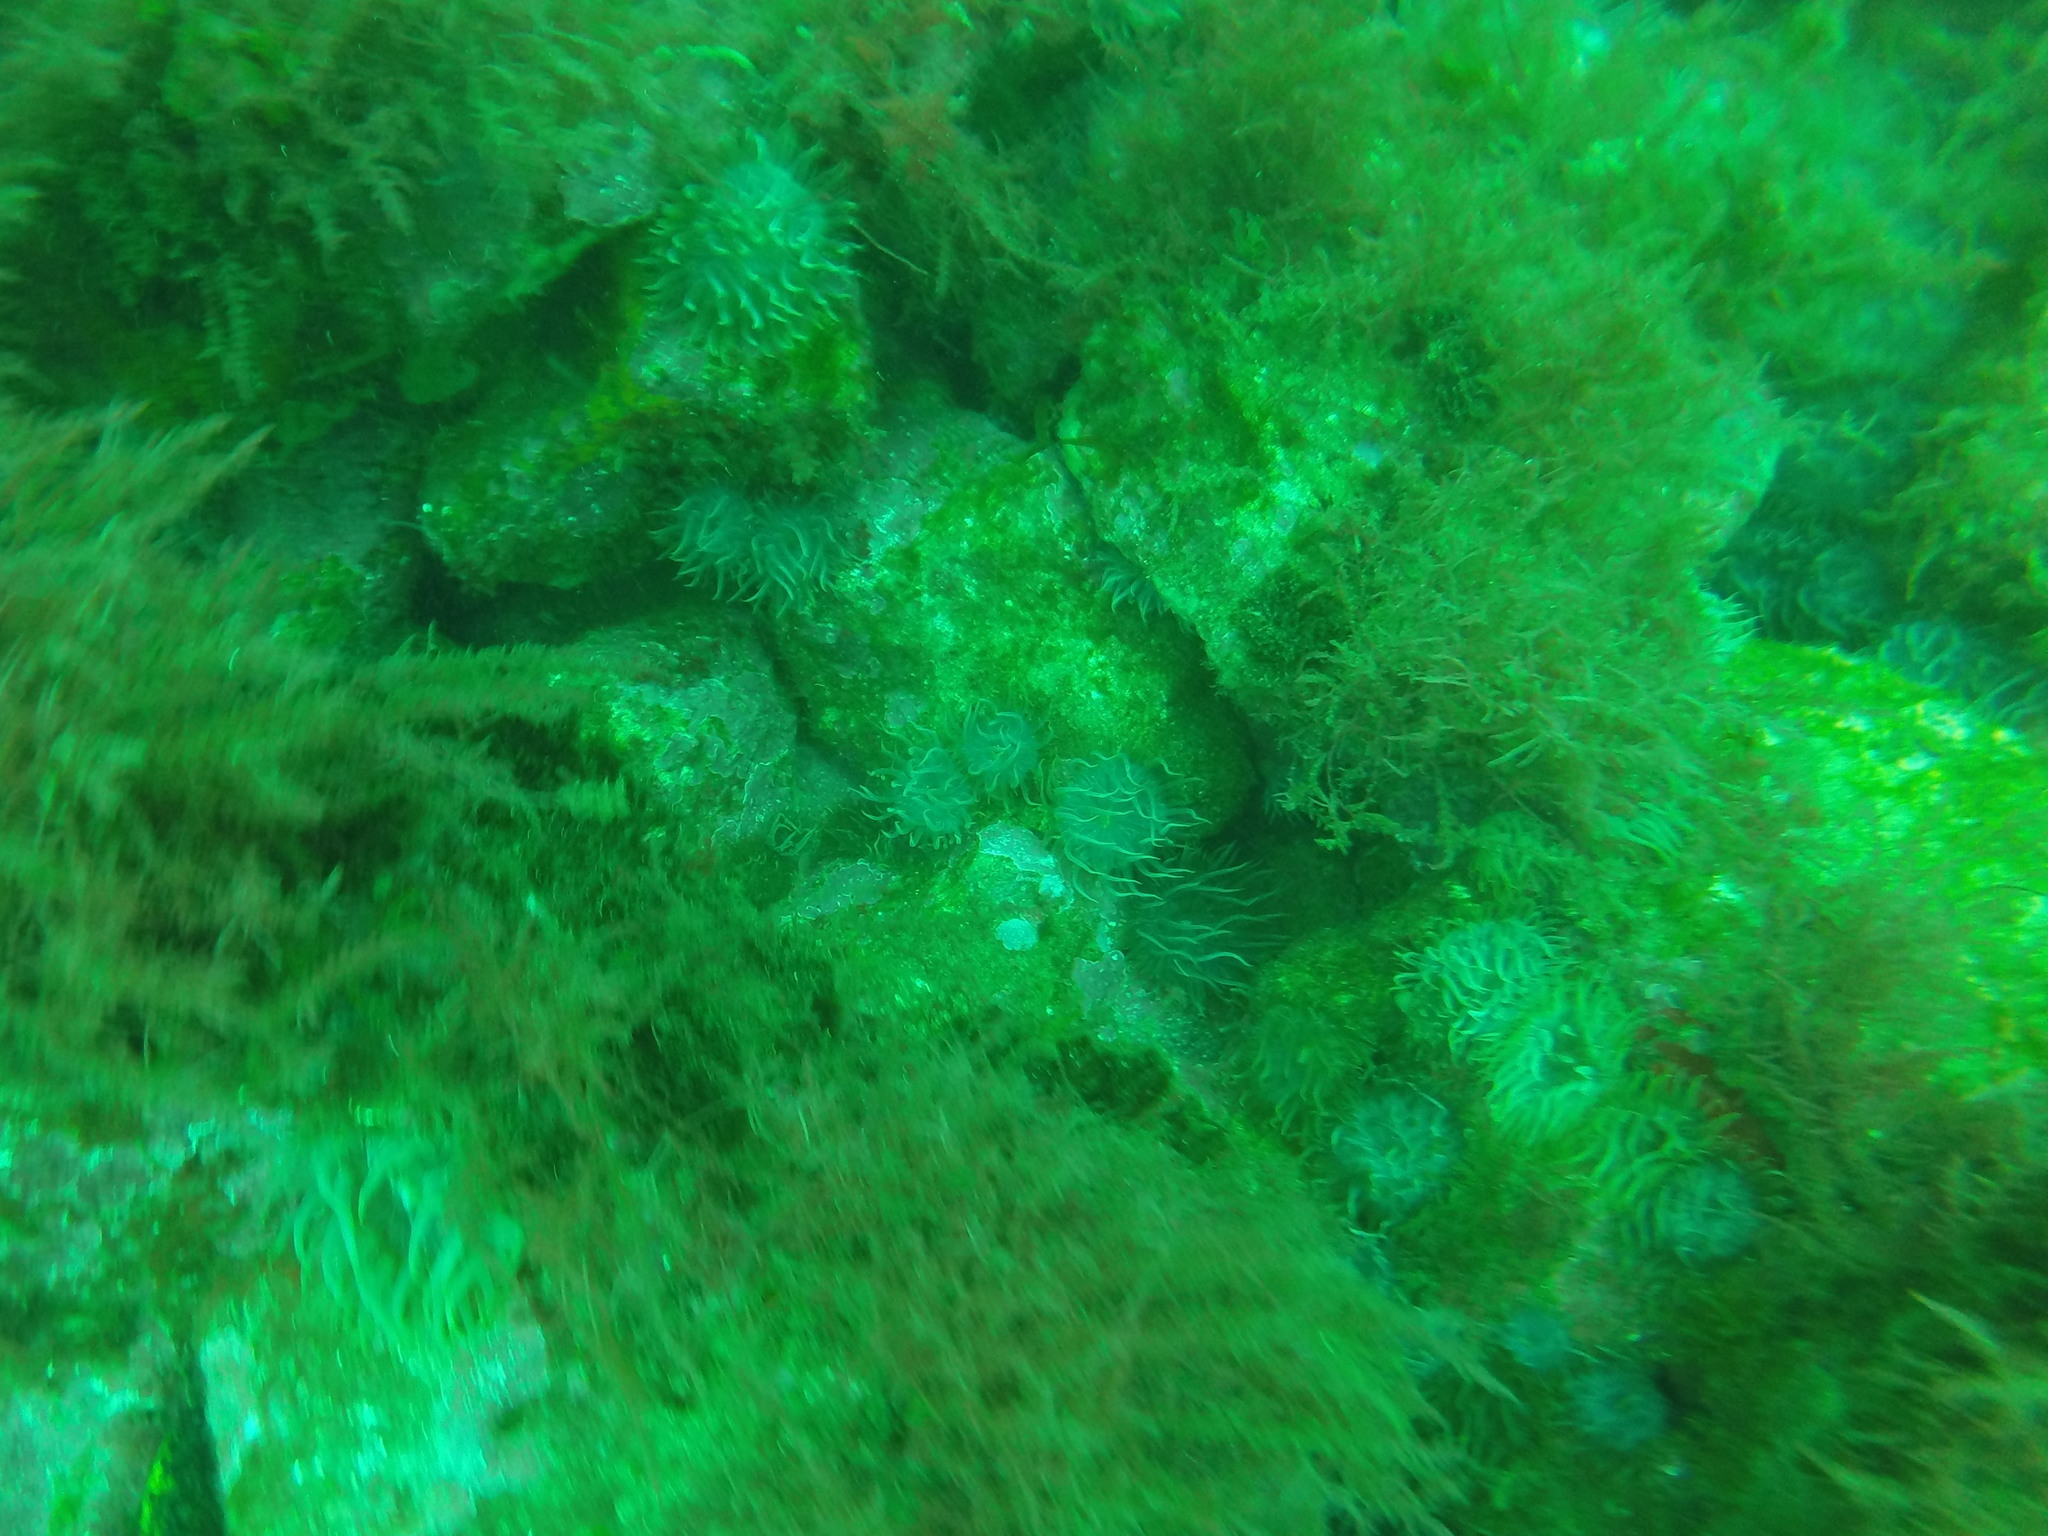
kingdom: Animalia
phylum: Cnidaria
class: Anthozoa
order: Actiniaria
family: Aiptasiidae
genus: Aiptasia
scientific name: Aiptasia couchii
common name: Trumpet anemone
